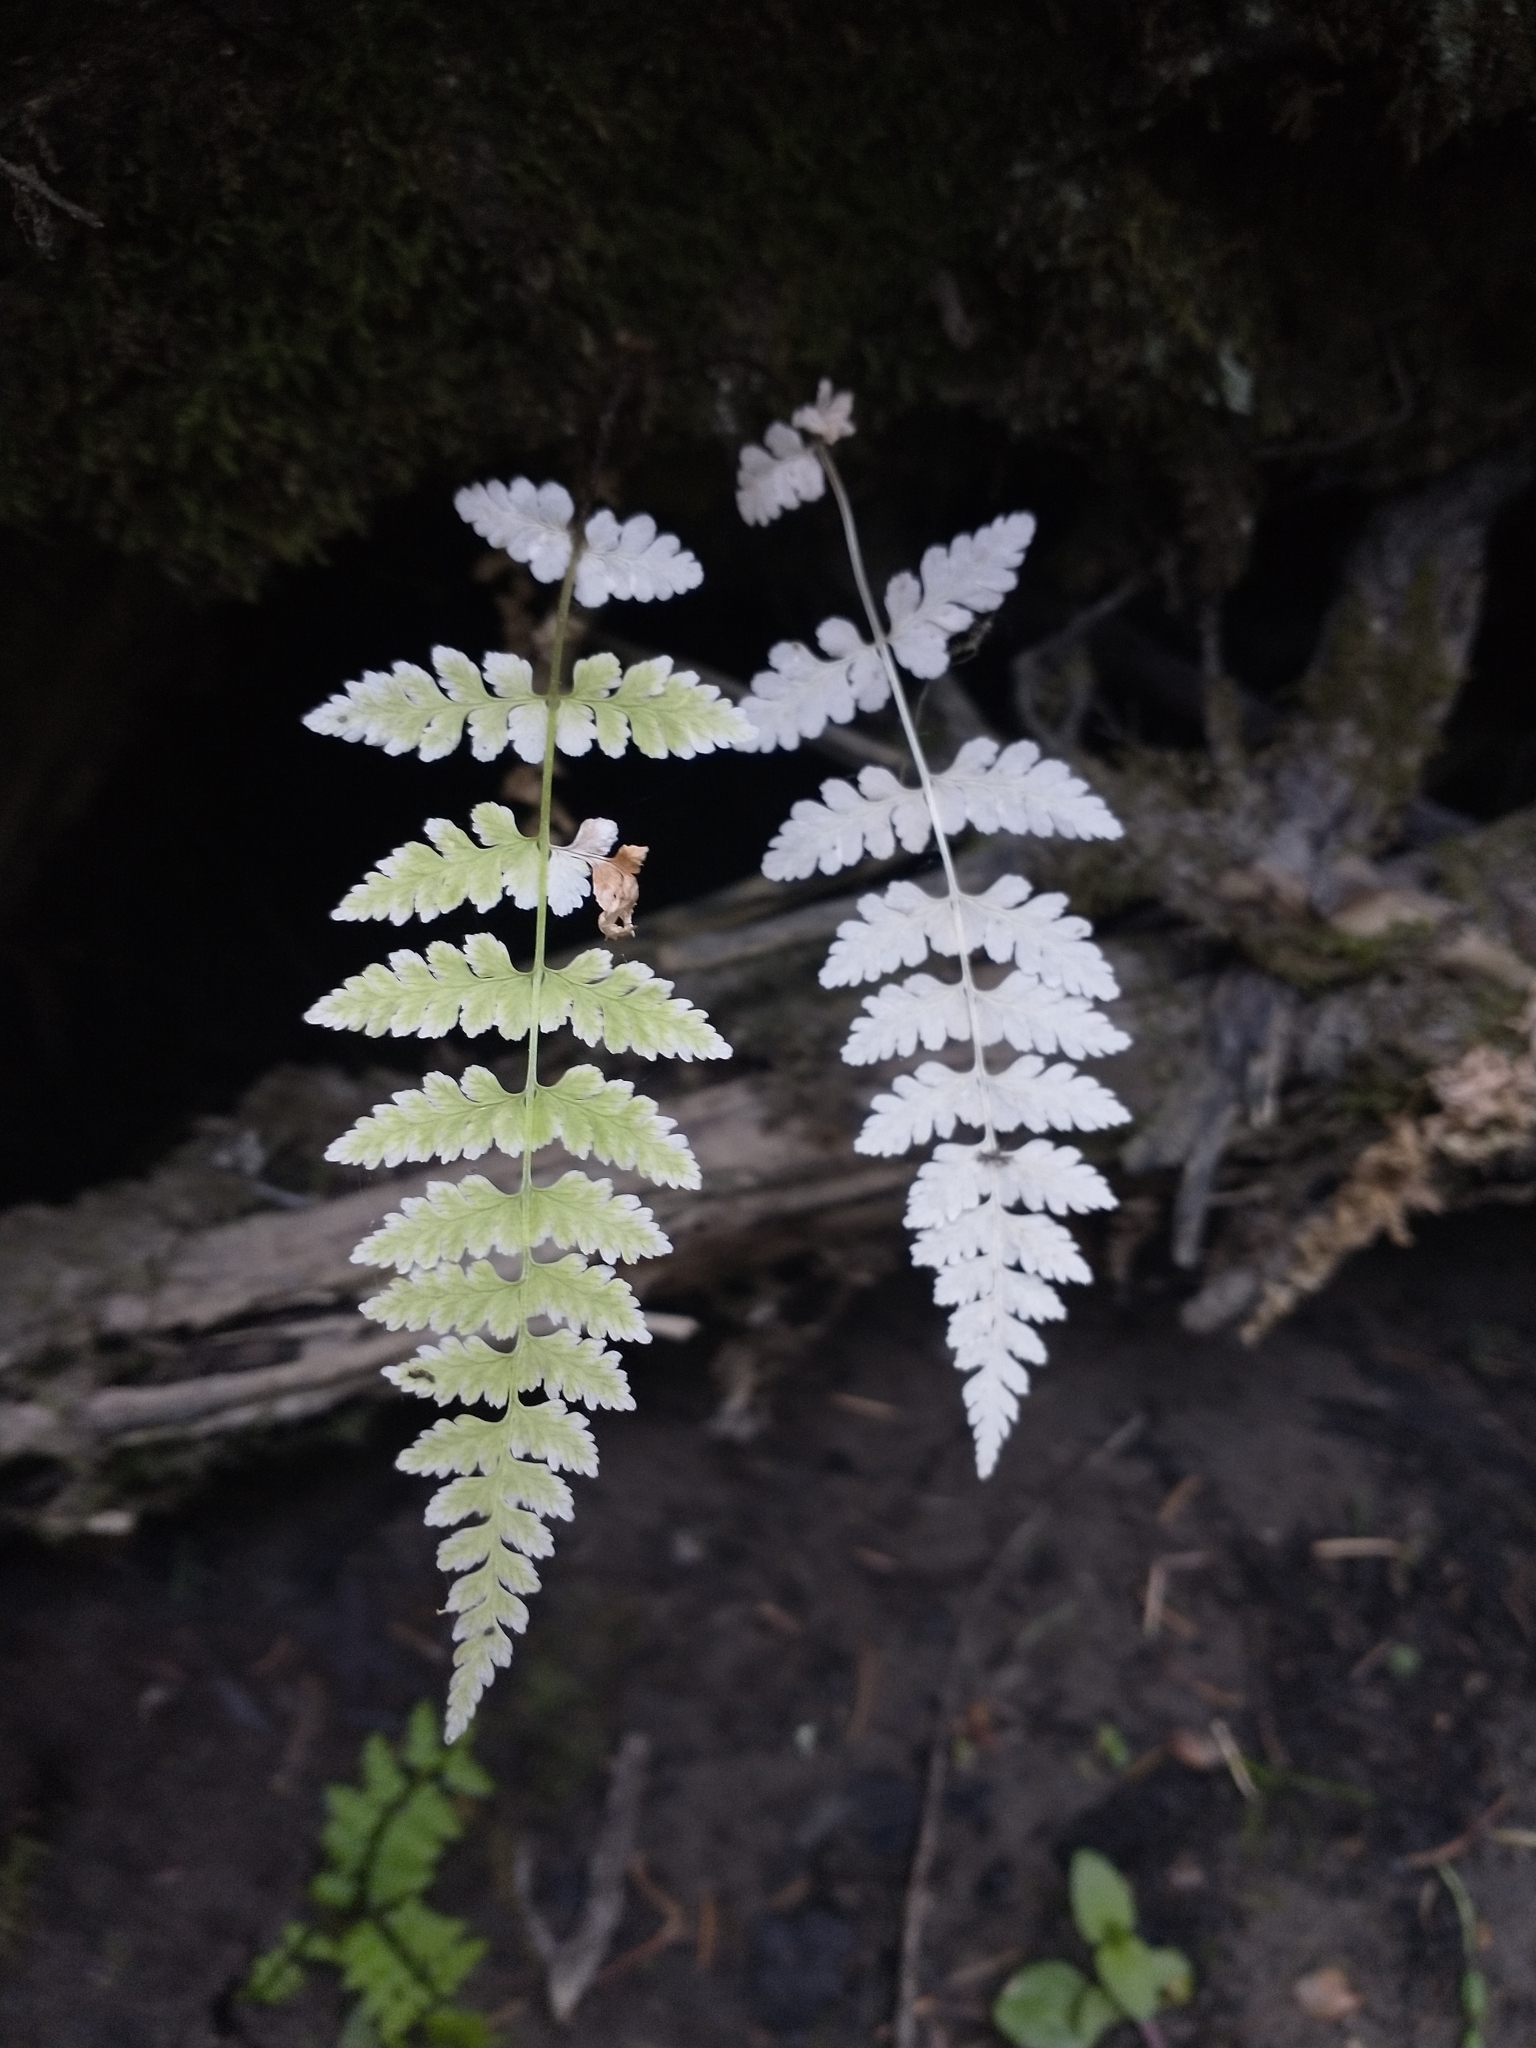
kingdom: Plantae
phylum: Tracheophyta
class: Polypodiopsida
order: Polypodiales
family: Cystopteridaceae
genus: Cystopteris
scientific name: Cystopteris fragilis
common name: Brittle bladder fern
